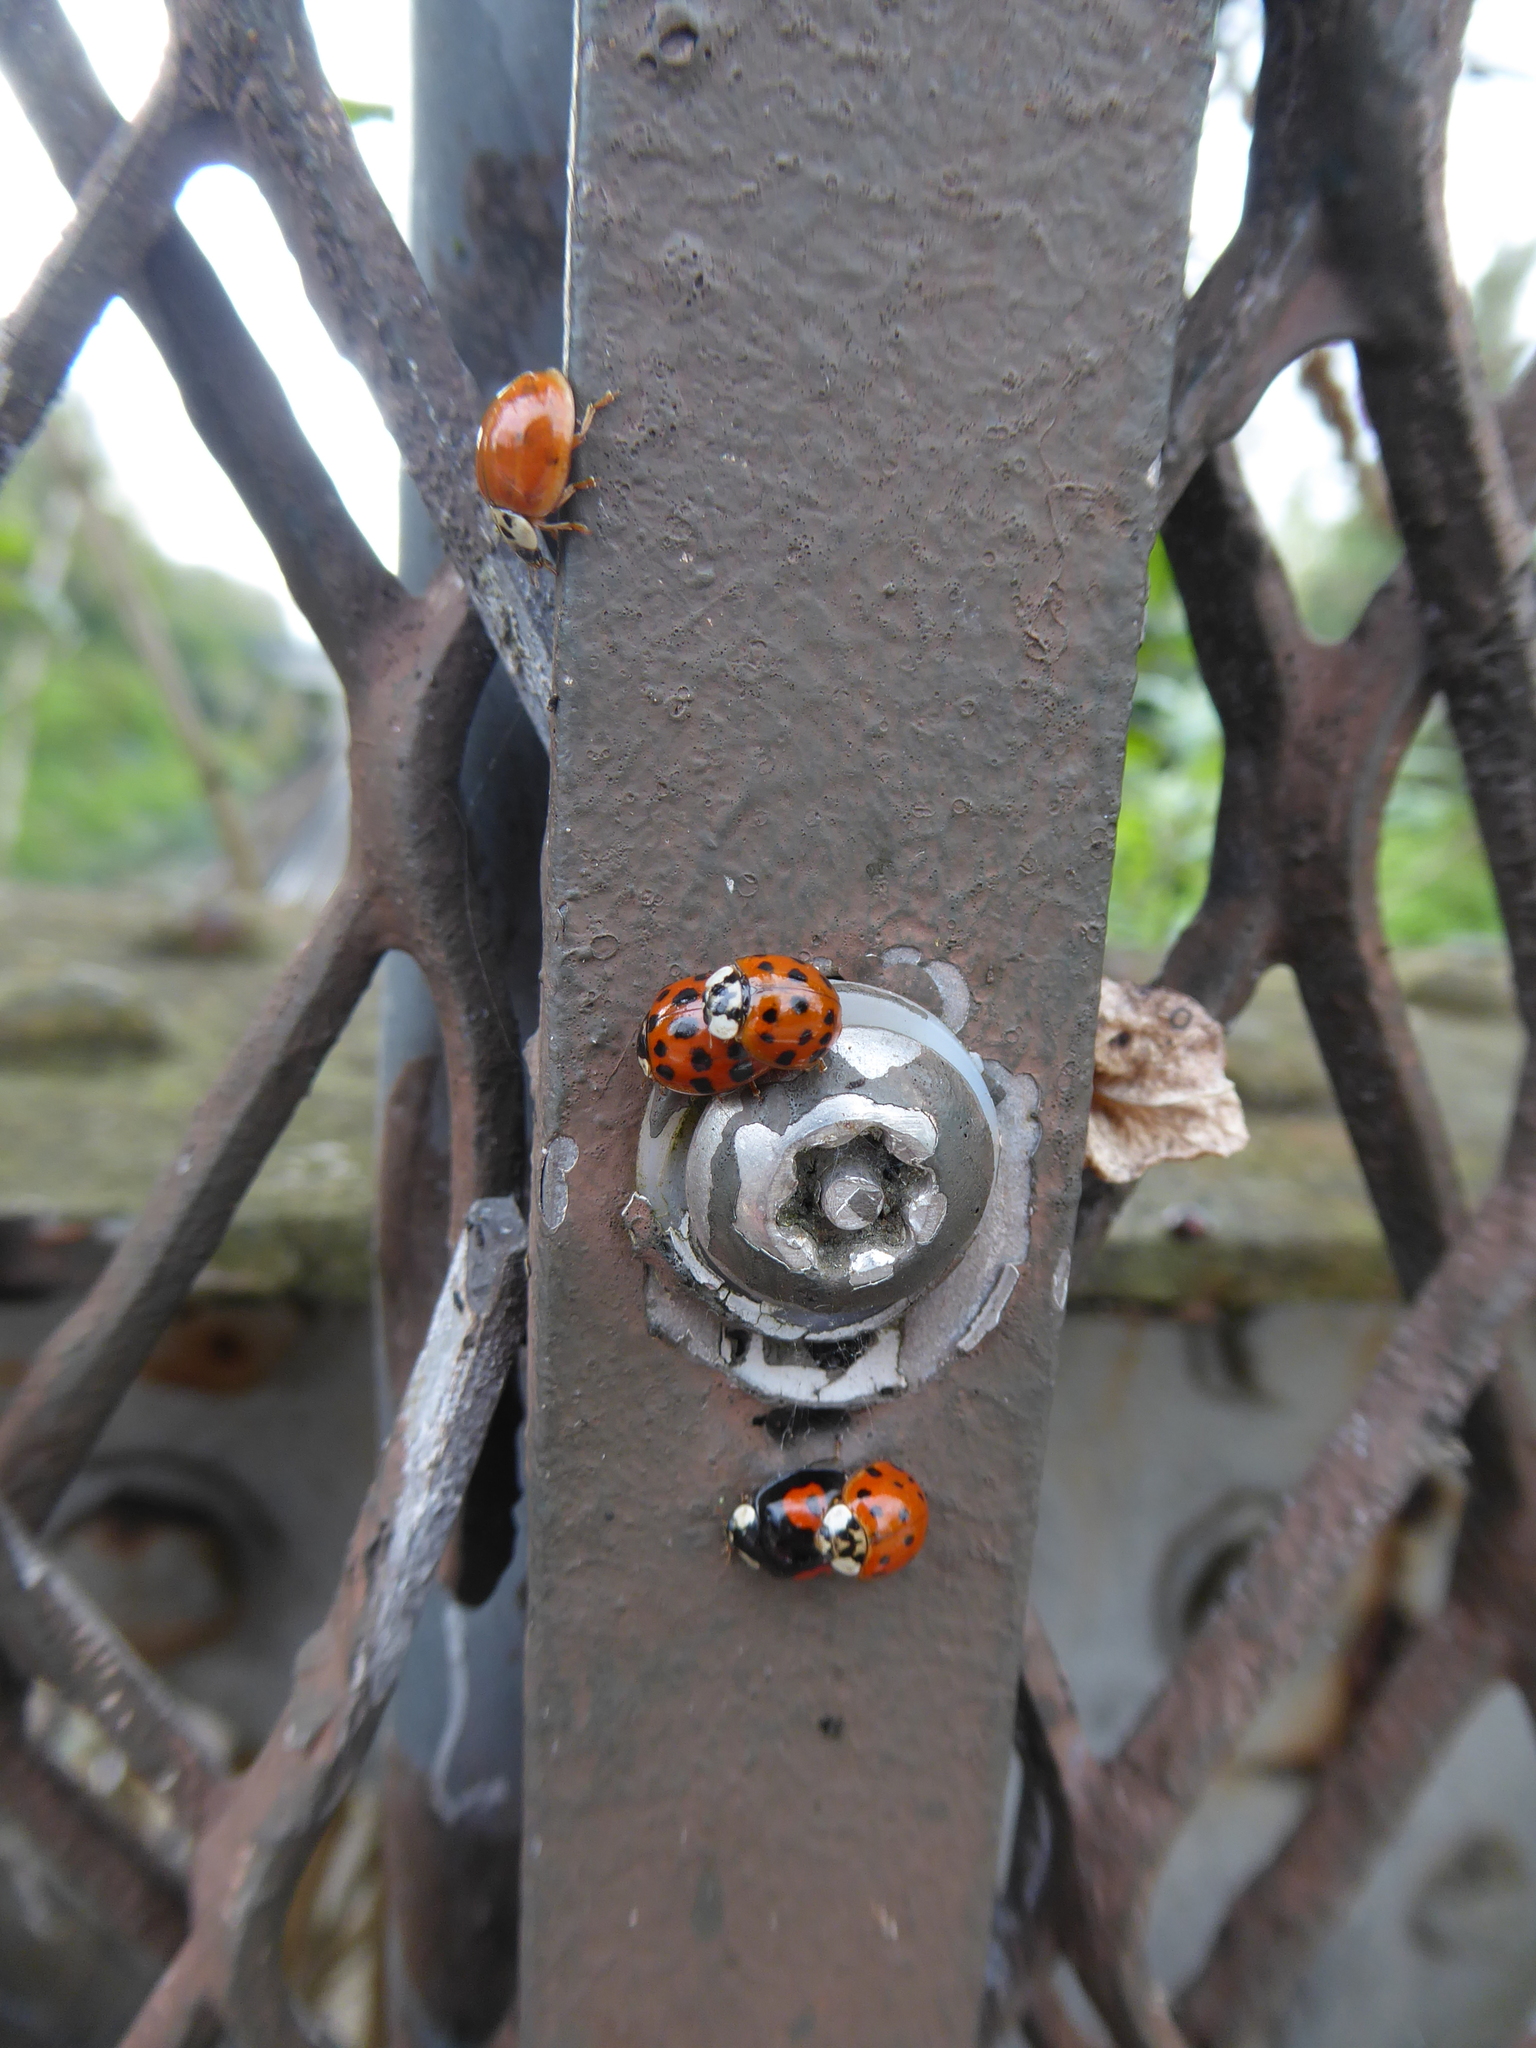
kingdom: Animalia
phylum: Arthropoda
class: Insecta
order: Coleoptera
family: Coccinellidae
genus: Harmonia
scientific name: Harmonia axyridis
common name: Harlequin ladybird
